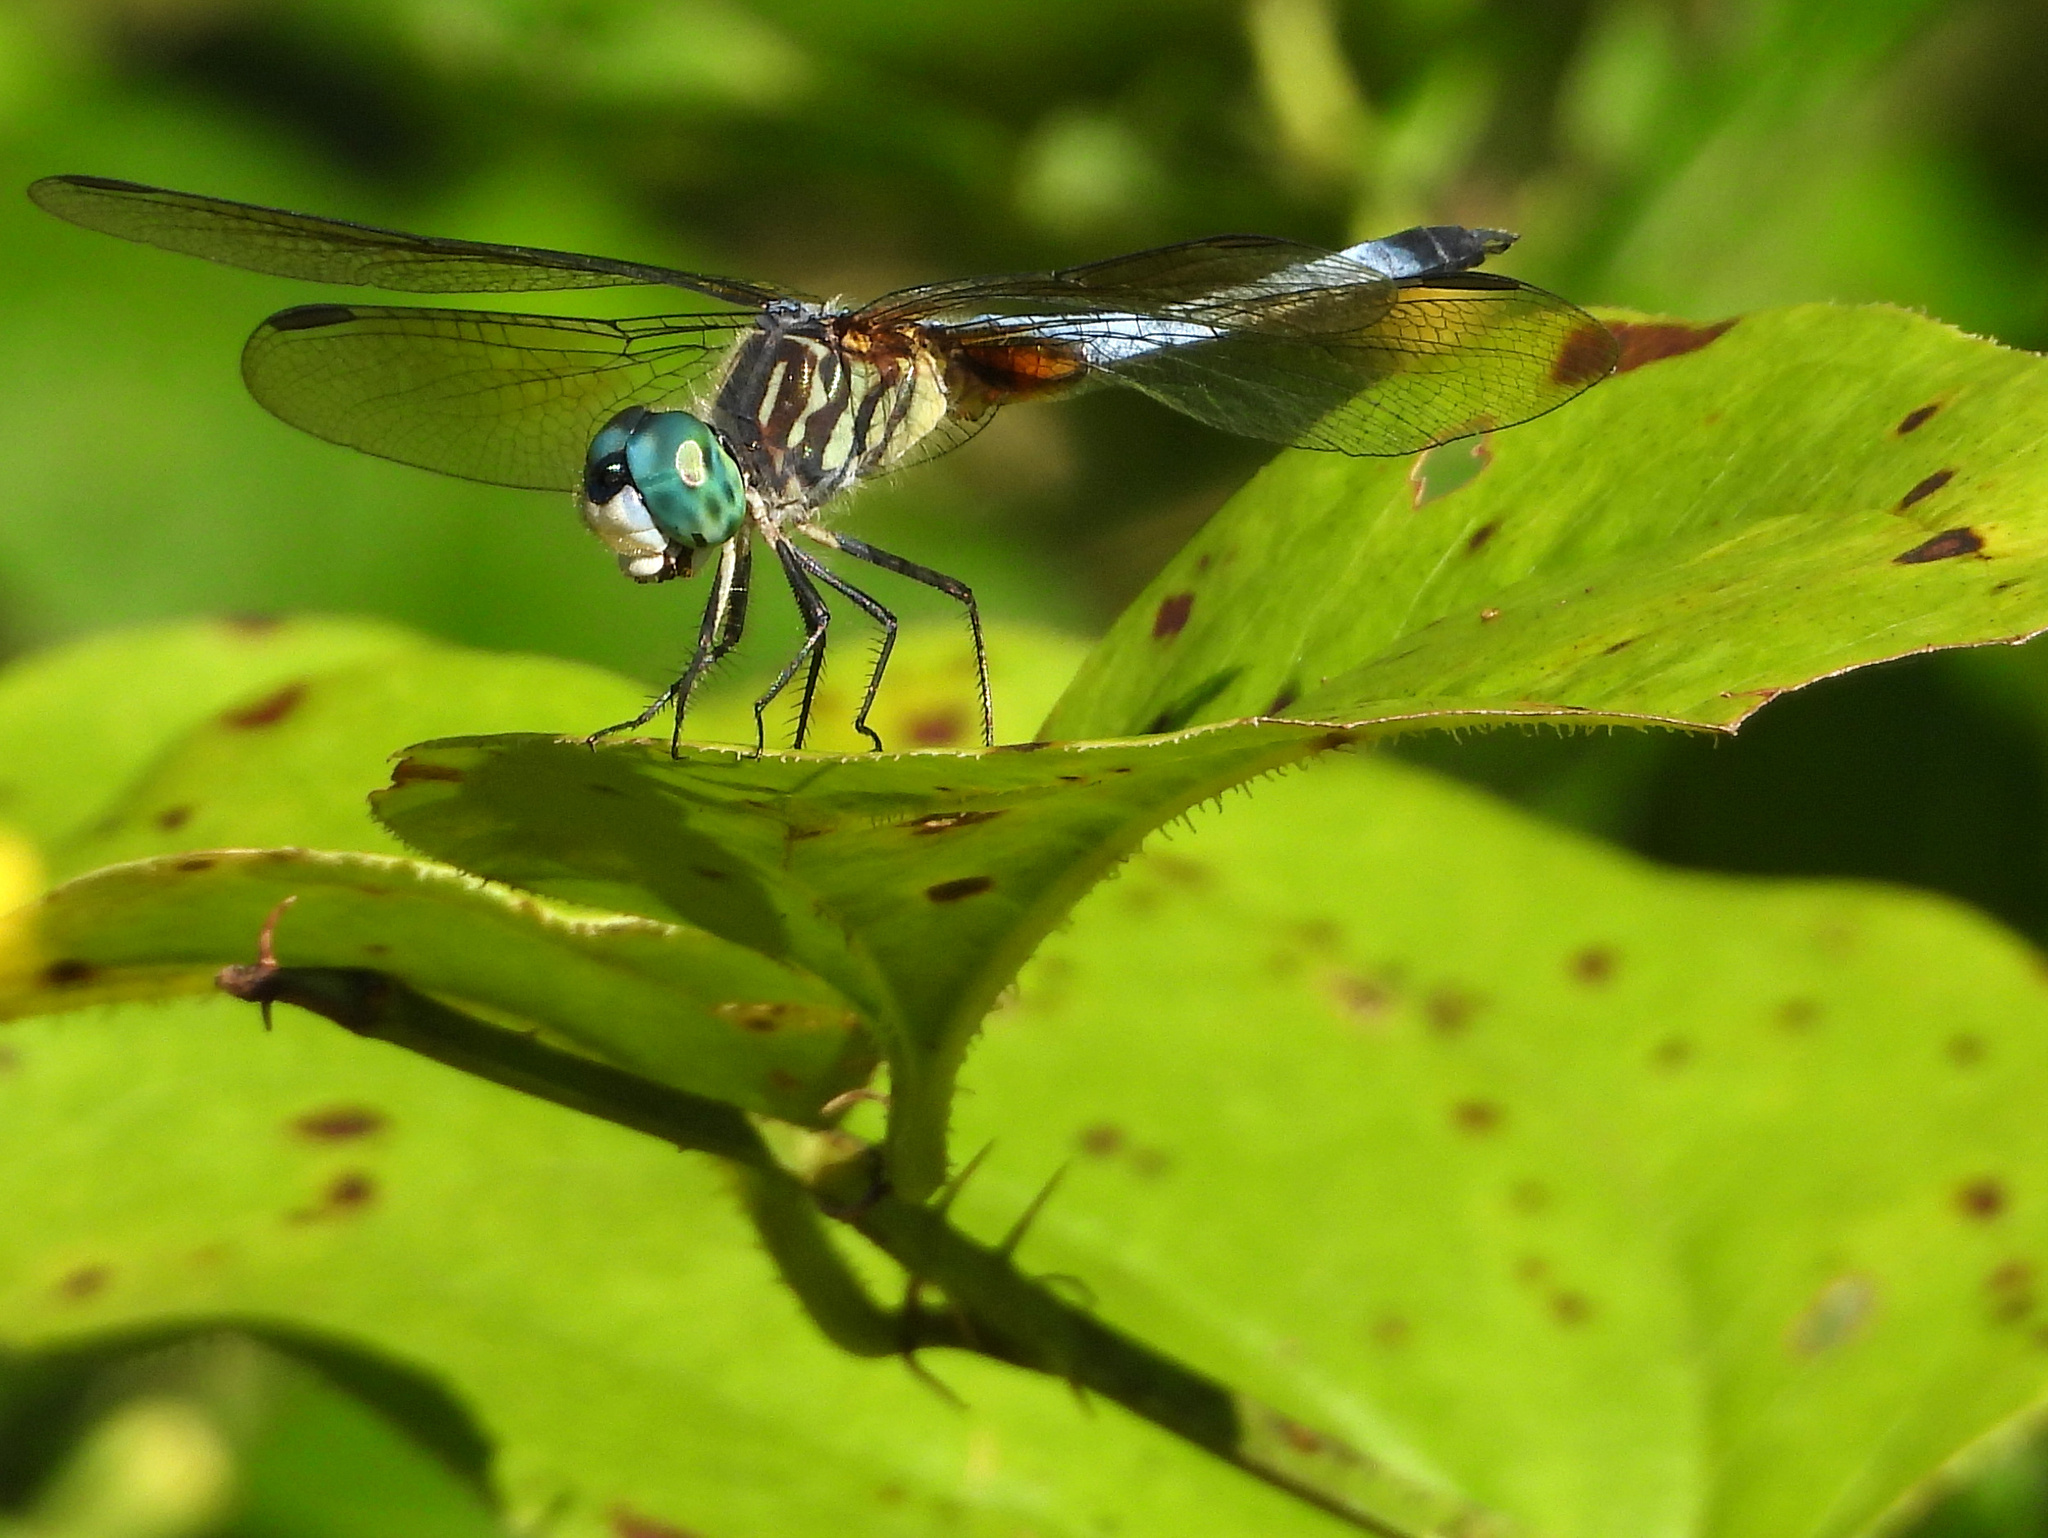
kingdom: Animalia
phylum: Arthropoda
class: Insecta
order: Odonata
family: Libellulidae
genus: Pachydiplax
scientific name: Pachydiplax longipennis
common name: Blue dasher
